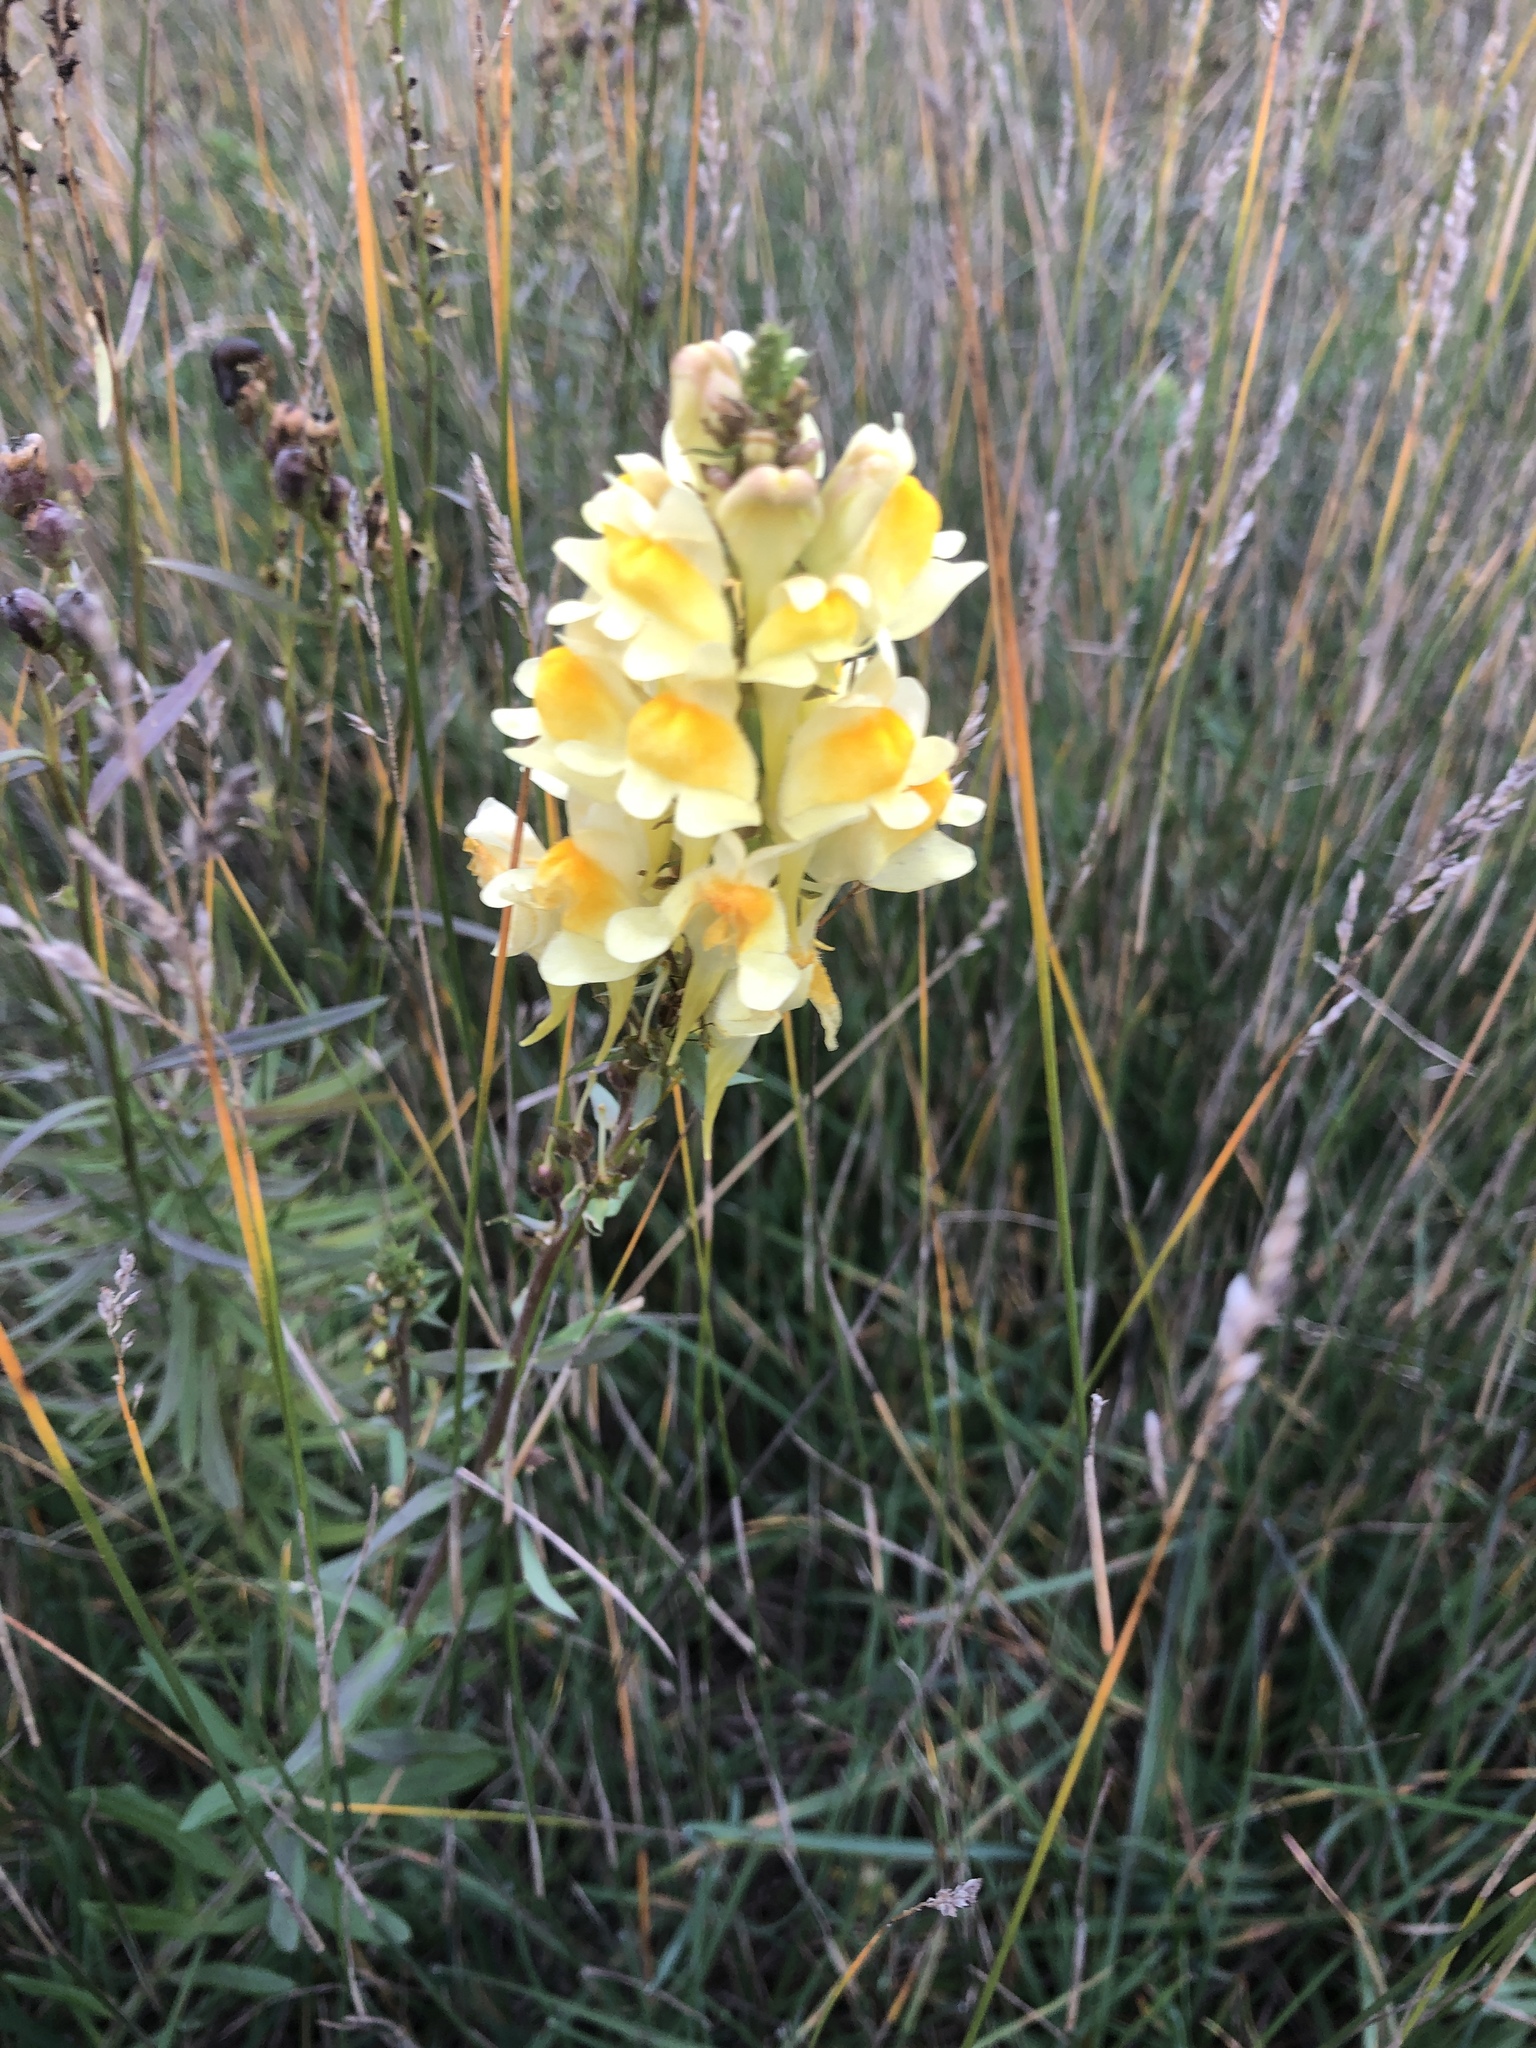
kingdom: Plantae
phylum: Tracheophyta
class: Magnoliopsida
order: Lamiales
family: Plantaginaceae
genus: Linaria
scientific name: Linaria vulgaris
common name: Butter and eggs
